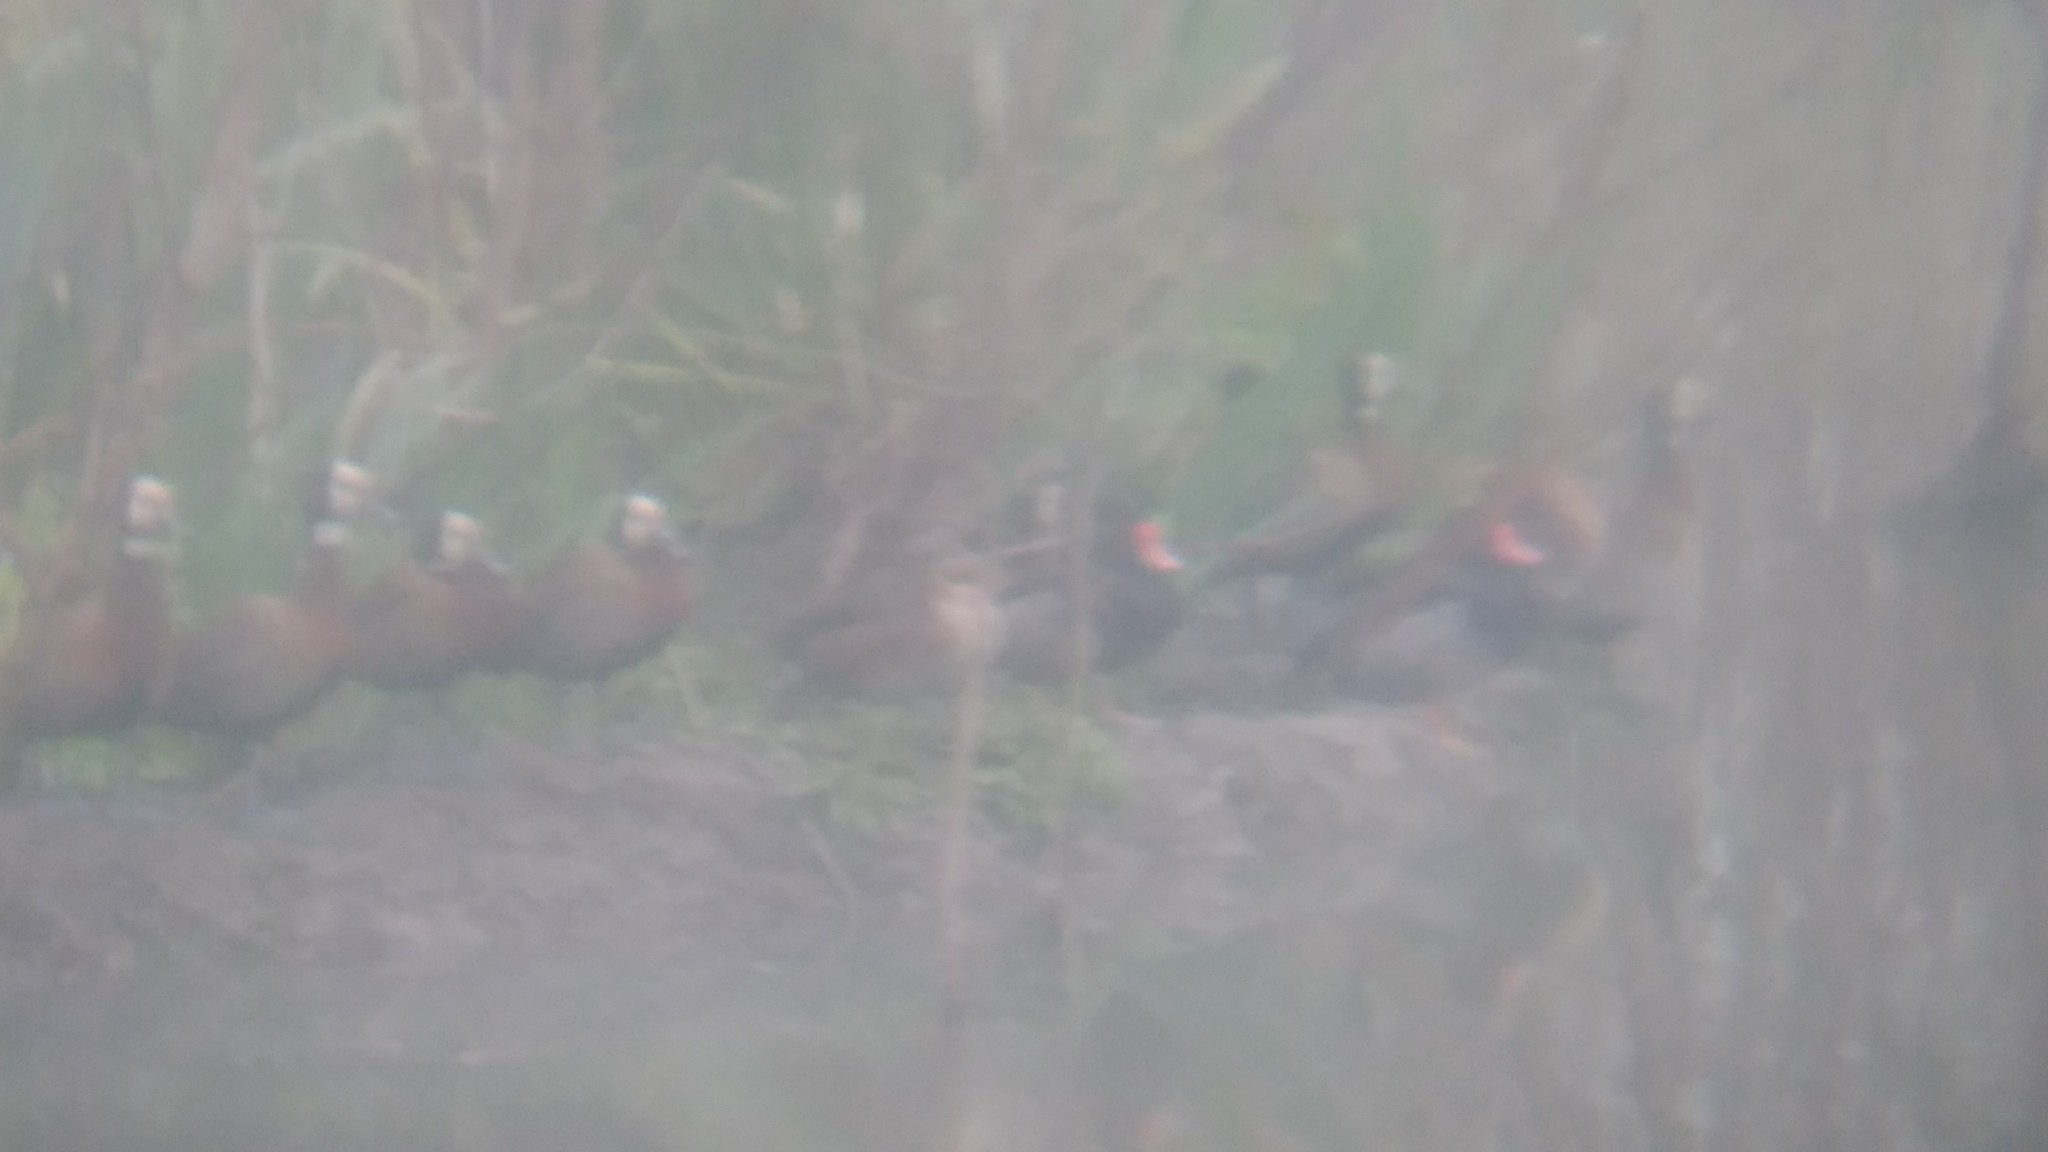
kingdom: Animalia
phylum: Chordata
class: Aves
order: Anseriformes
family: Anatidae
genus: Dendrocygna
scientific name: Dendrocygna viduata
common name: White-faced whistling duck
